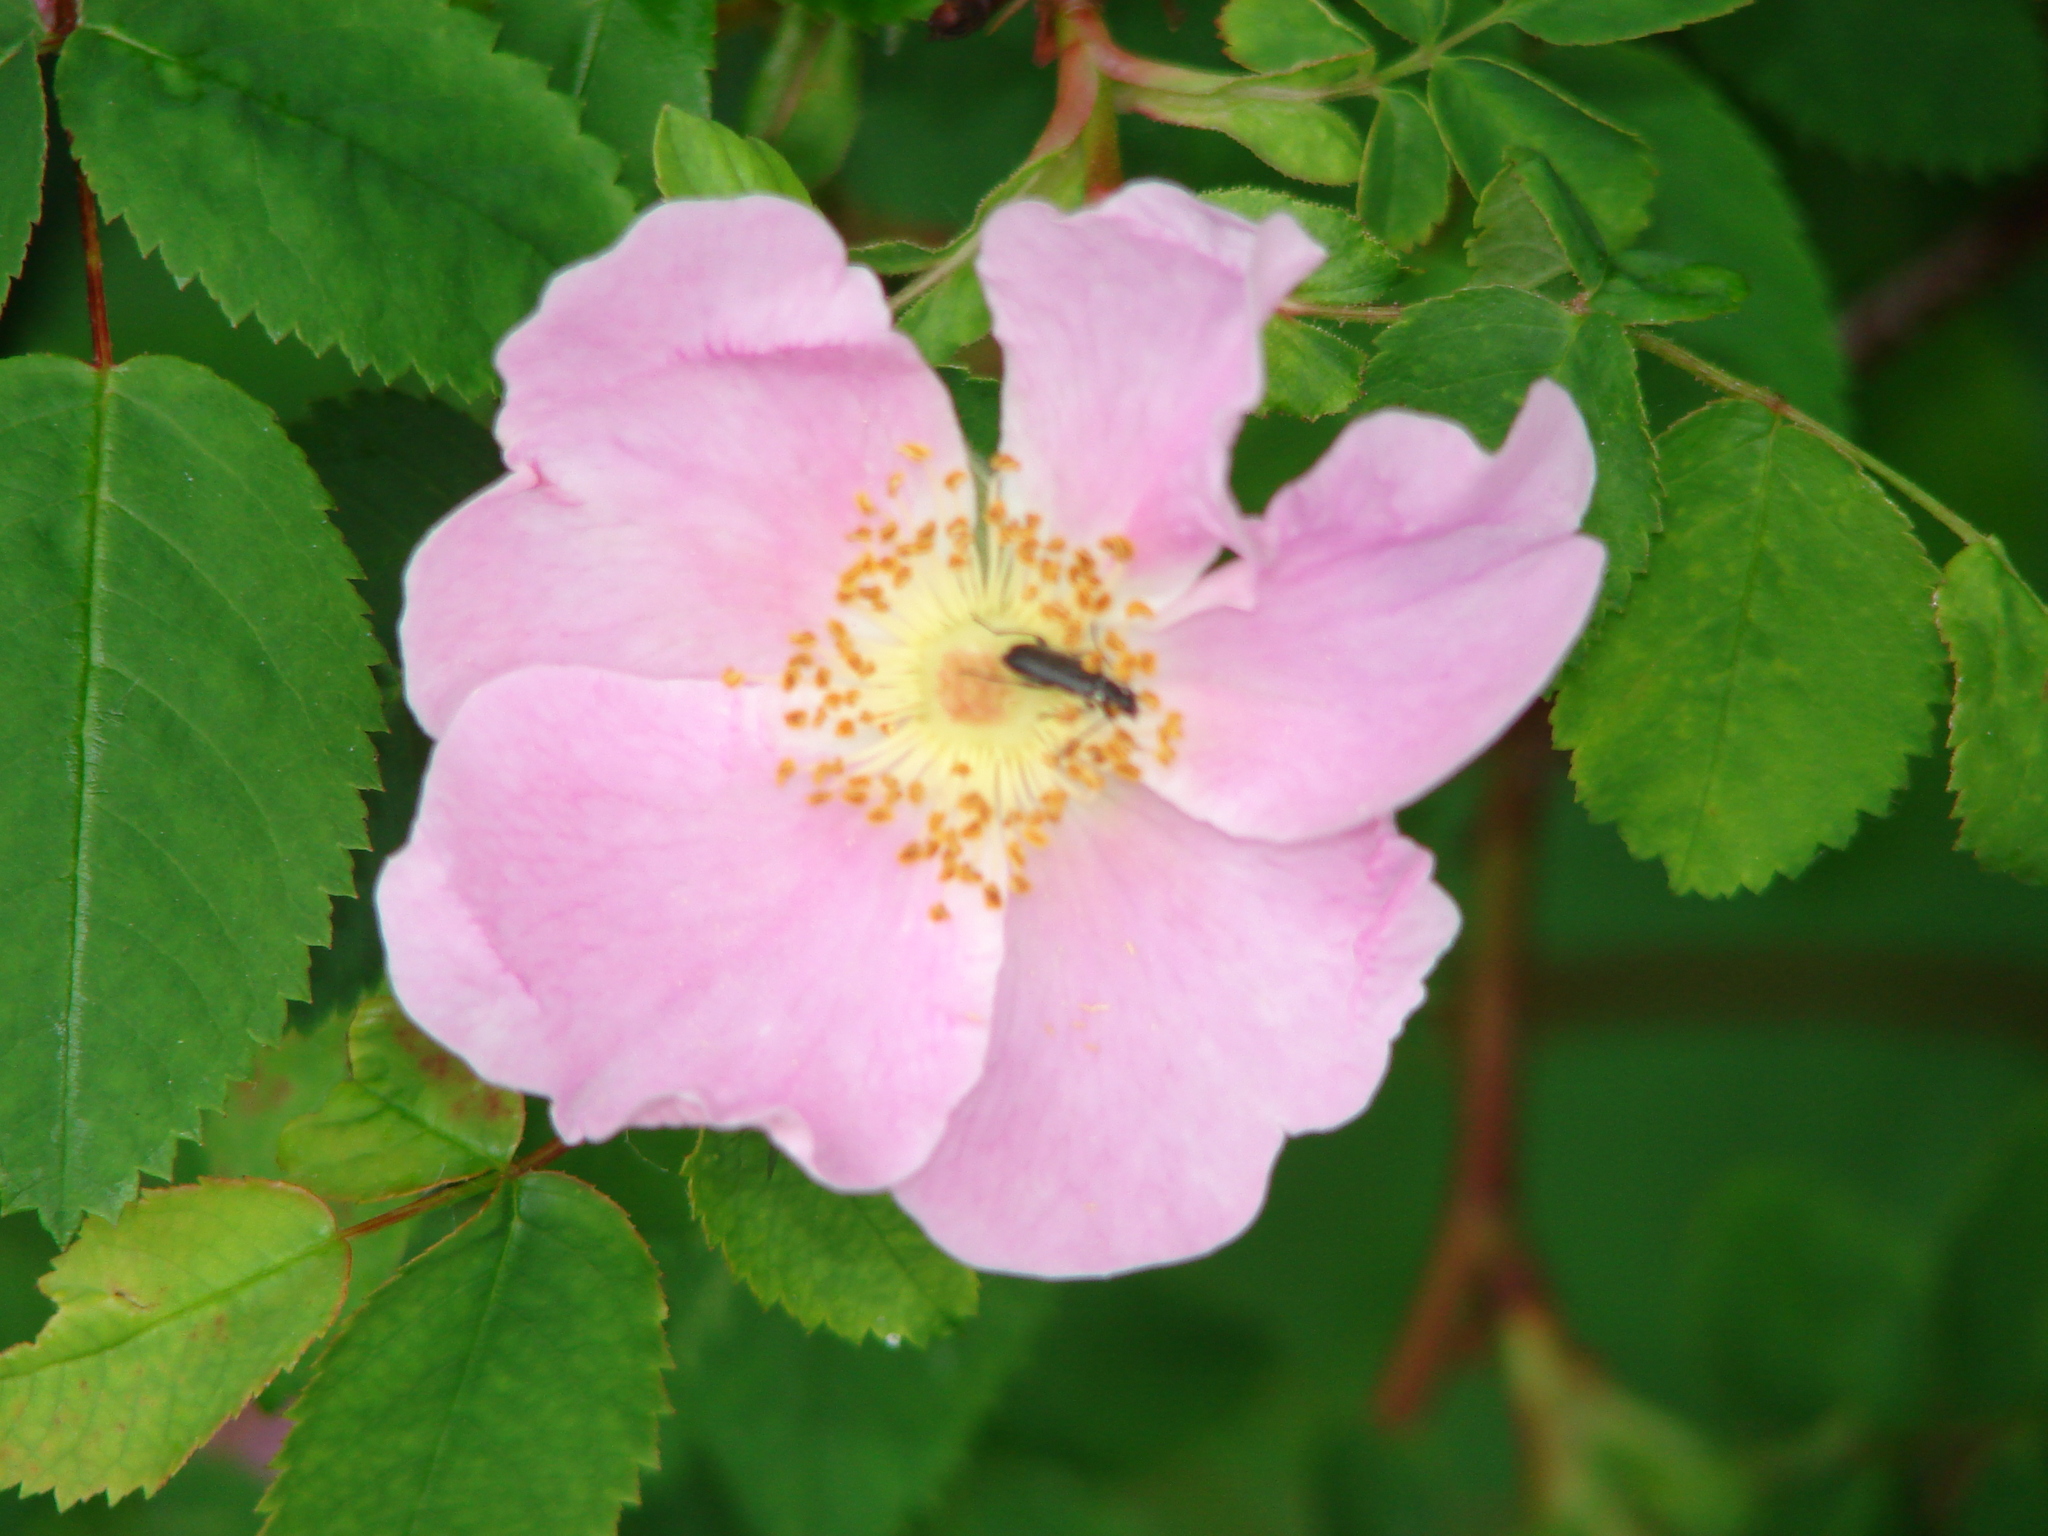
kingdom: Plantae
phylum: Tracheophyta
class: Magnoliopsida
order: Rosales
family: Rosaceae
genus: Rosa
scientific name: Rosa nutkana
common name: Nootka rose
